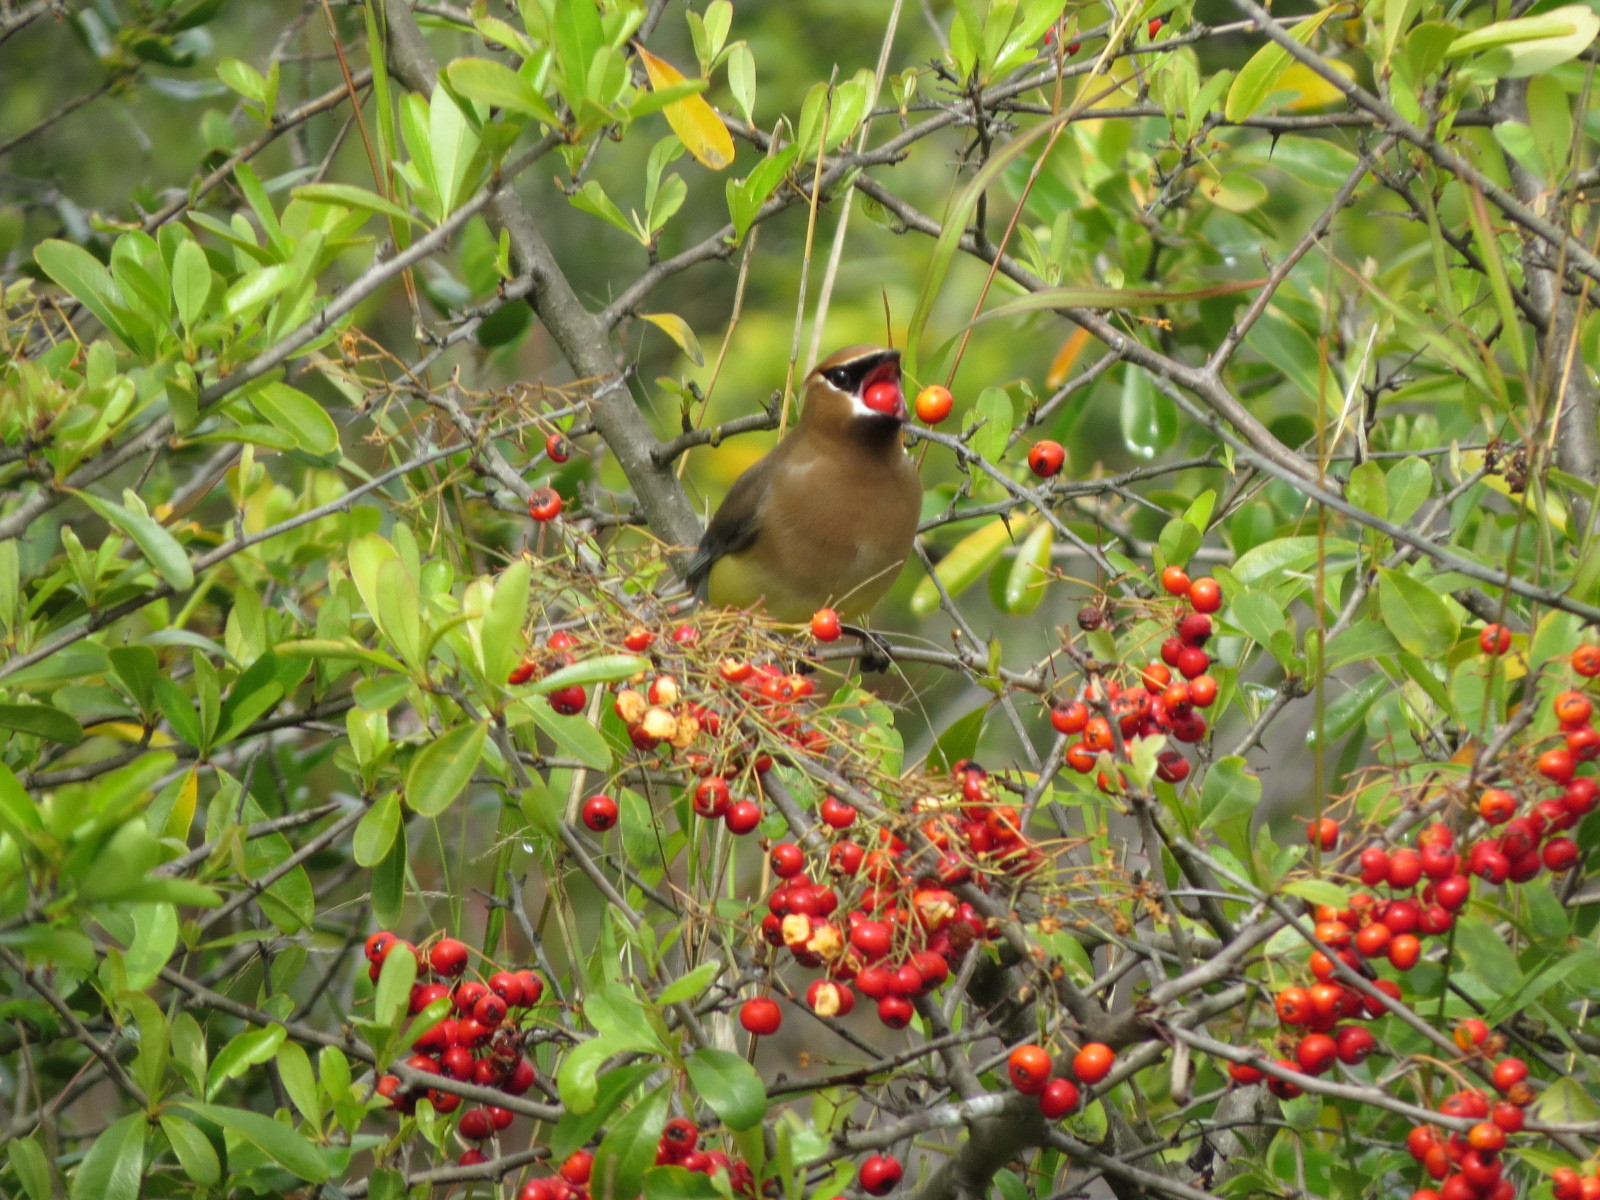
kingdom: Animalia
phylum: Chordata
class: Aves
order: Passeriformes
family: Bombycillidae
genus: Bombycilla
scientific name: Bombycilla cedrorum
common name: Cedar waxwing
